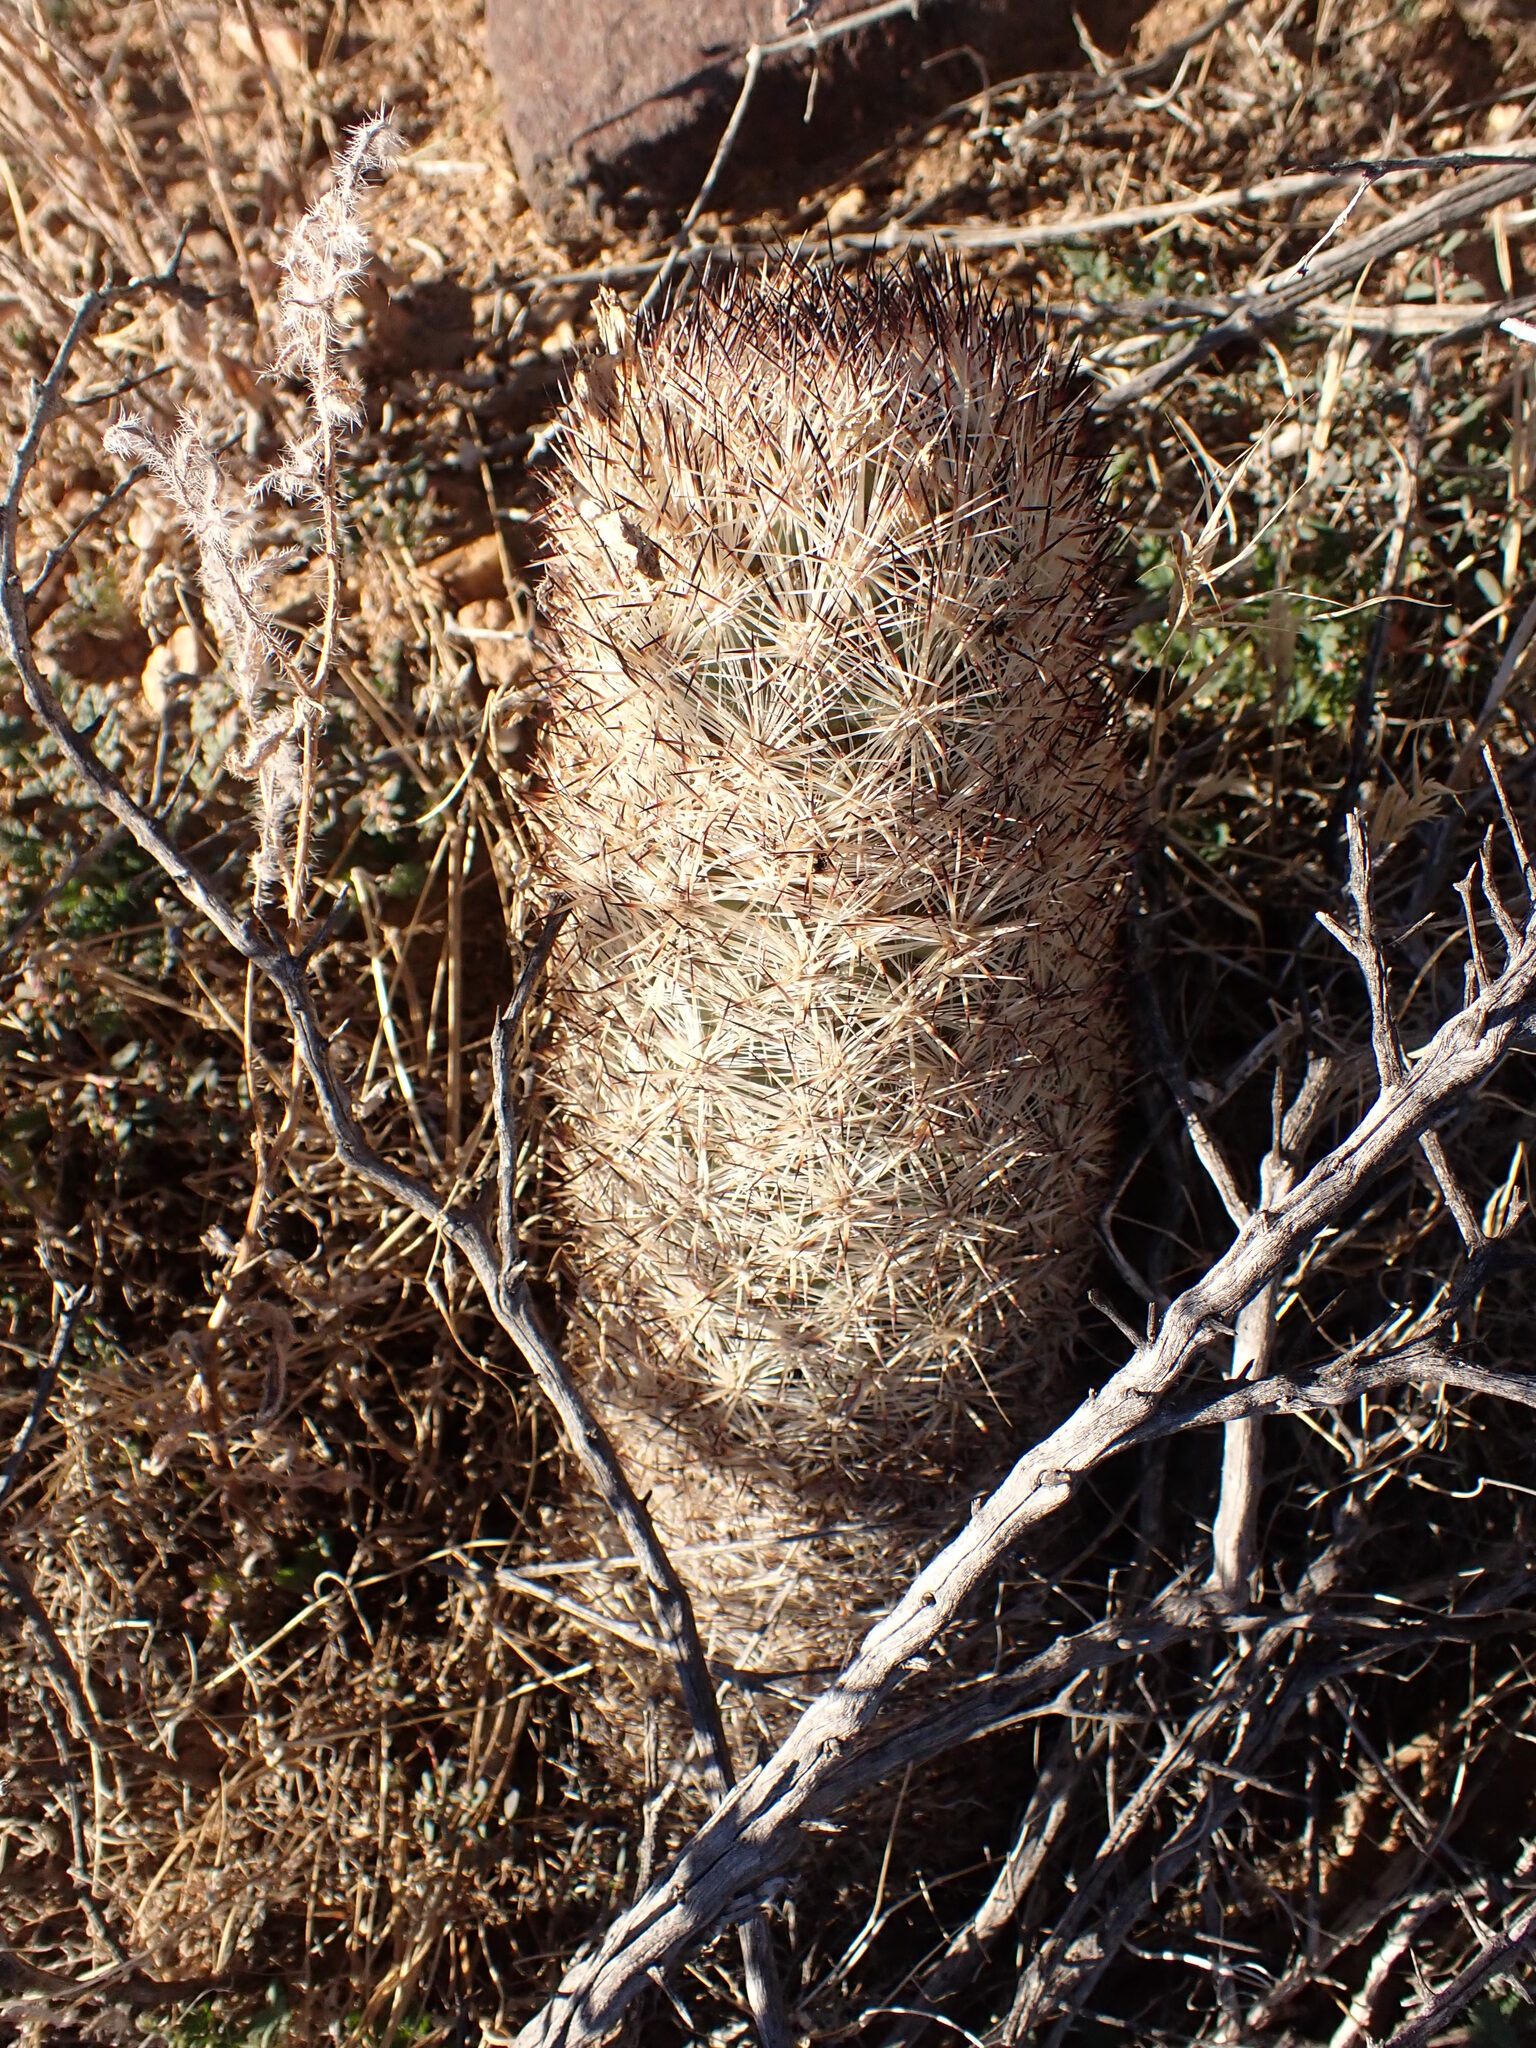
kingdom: Plantae
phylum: Tracheophyta
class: Magnoliopsida
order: Caryophyllales
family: Cactaceae
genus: Pelecyphora
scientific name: Pelecyphora alversonii
